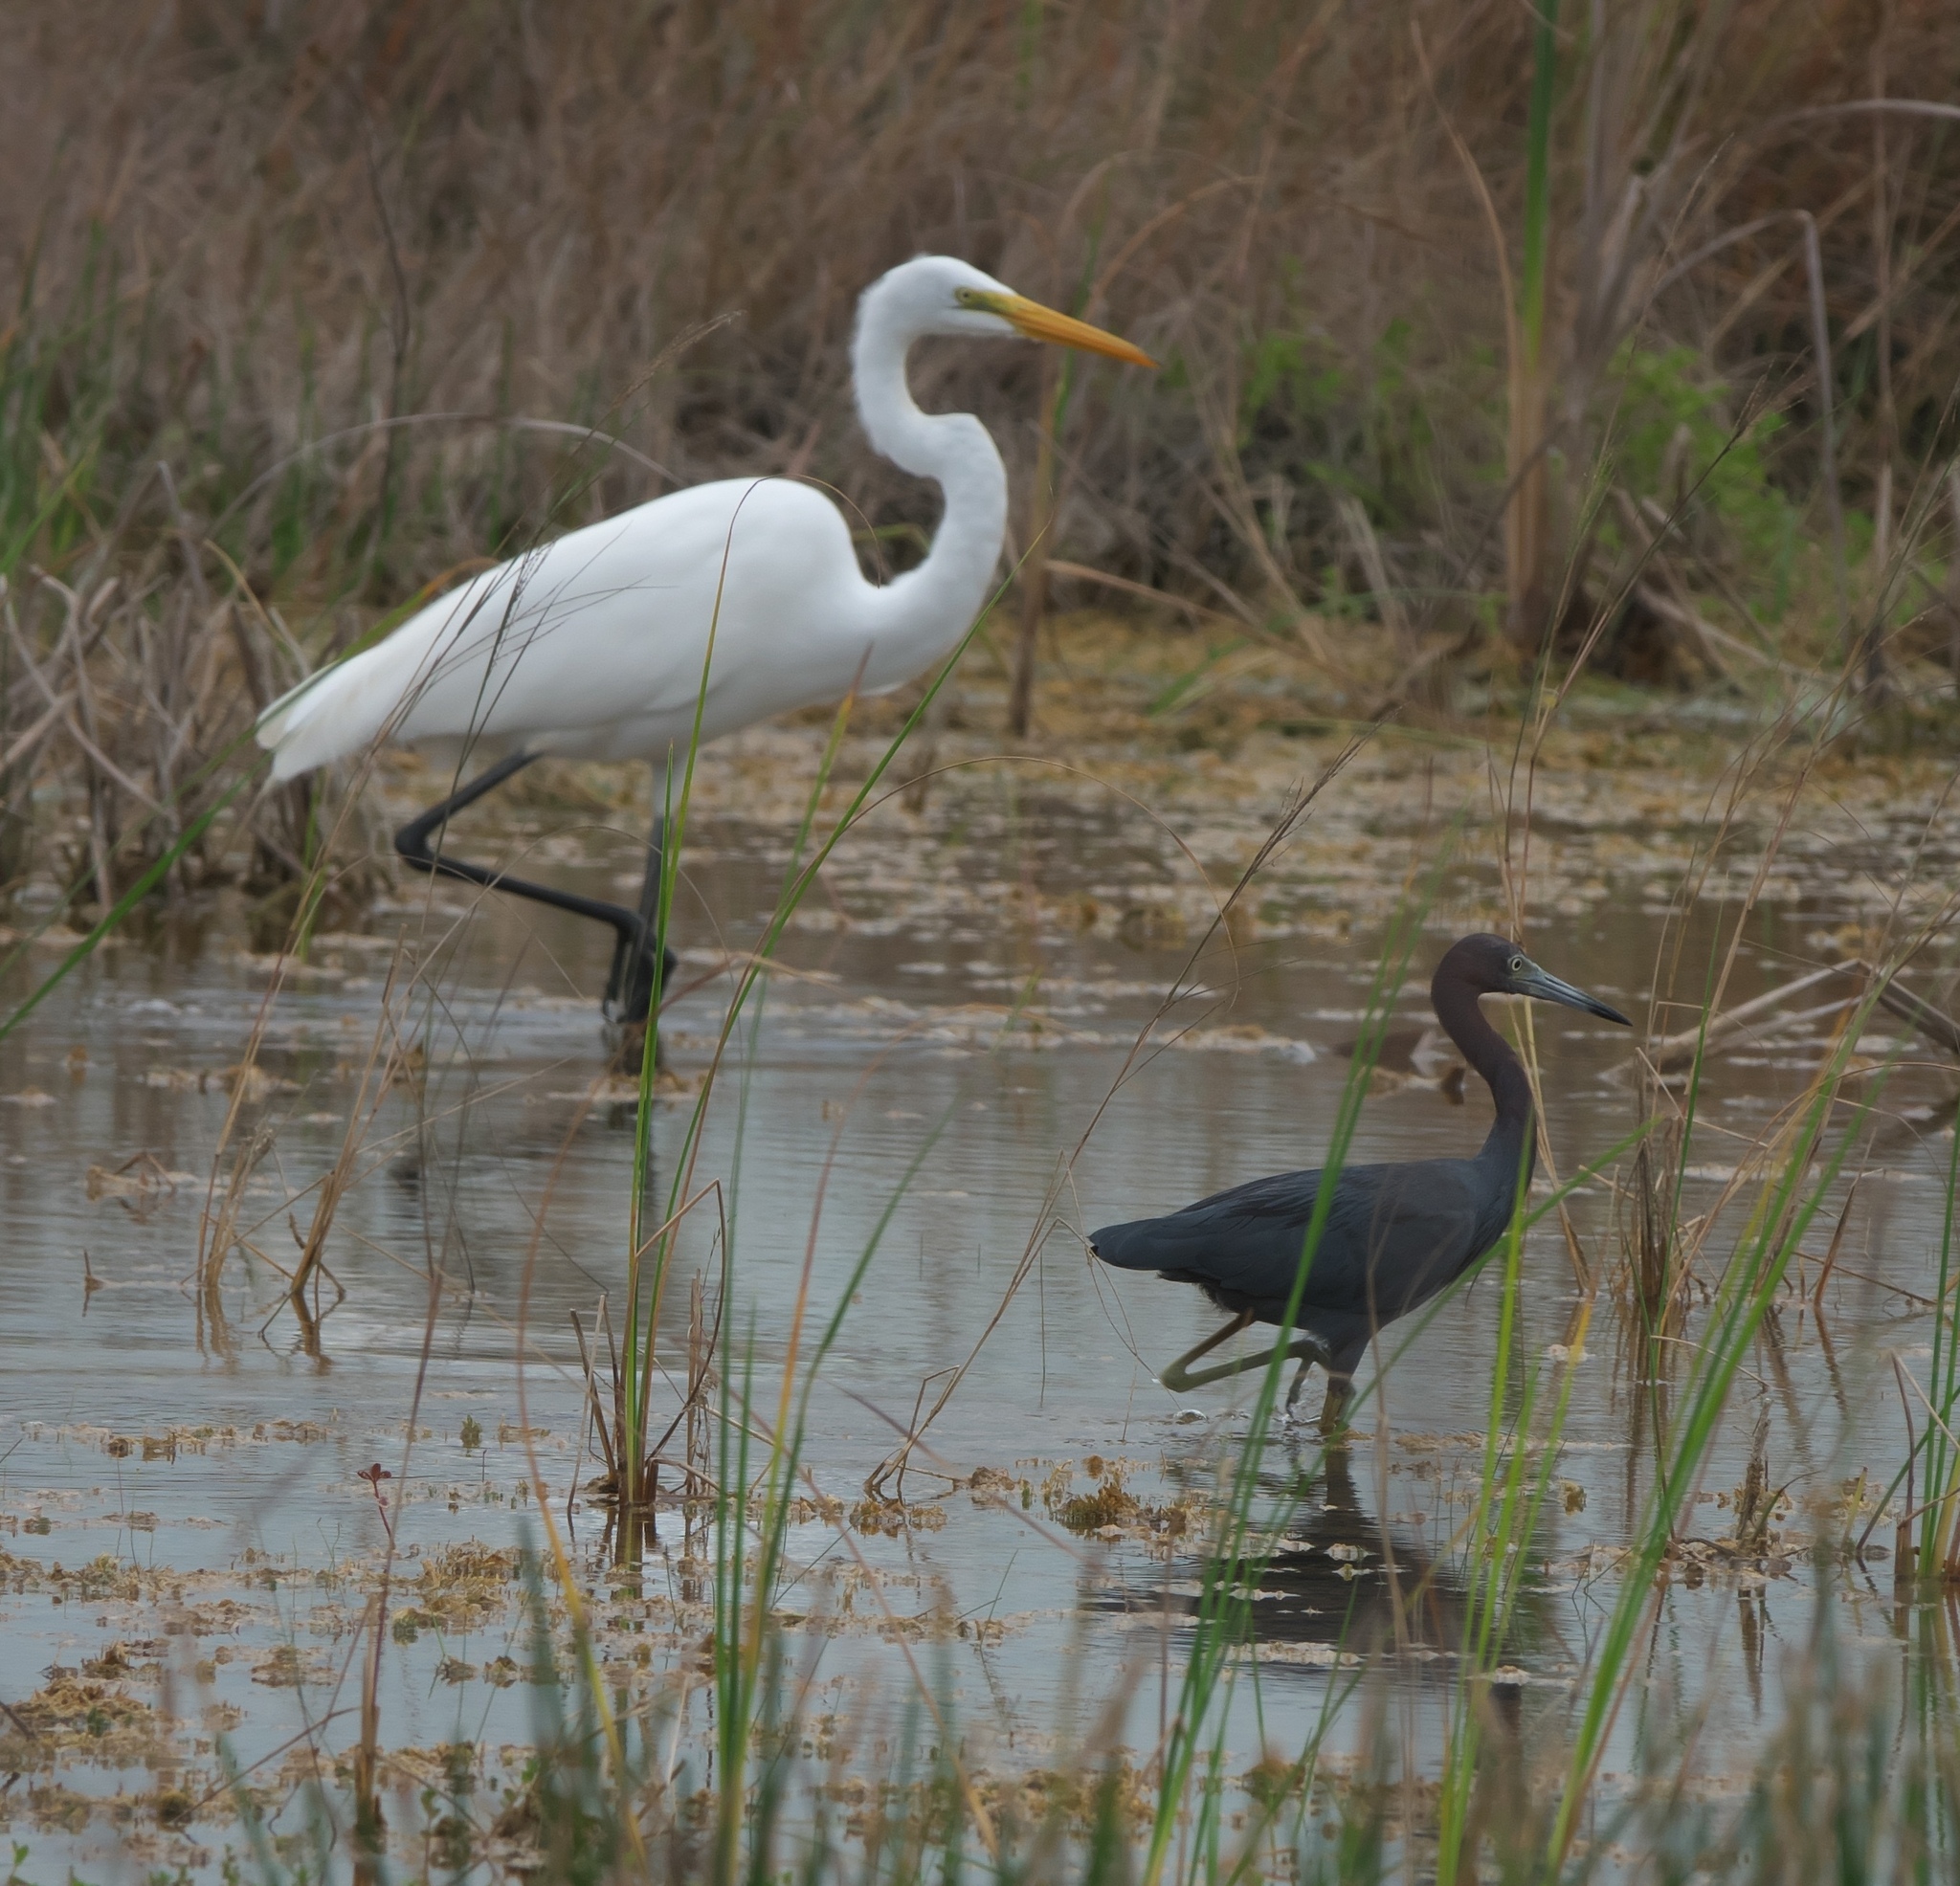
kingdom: Animalia
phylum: Chordata
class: Aves
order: Pelecaniformes
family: Ardeidae
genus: Egretta
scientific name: Egretta caerulea
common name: Little blue heron
